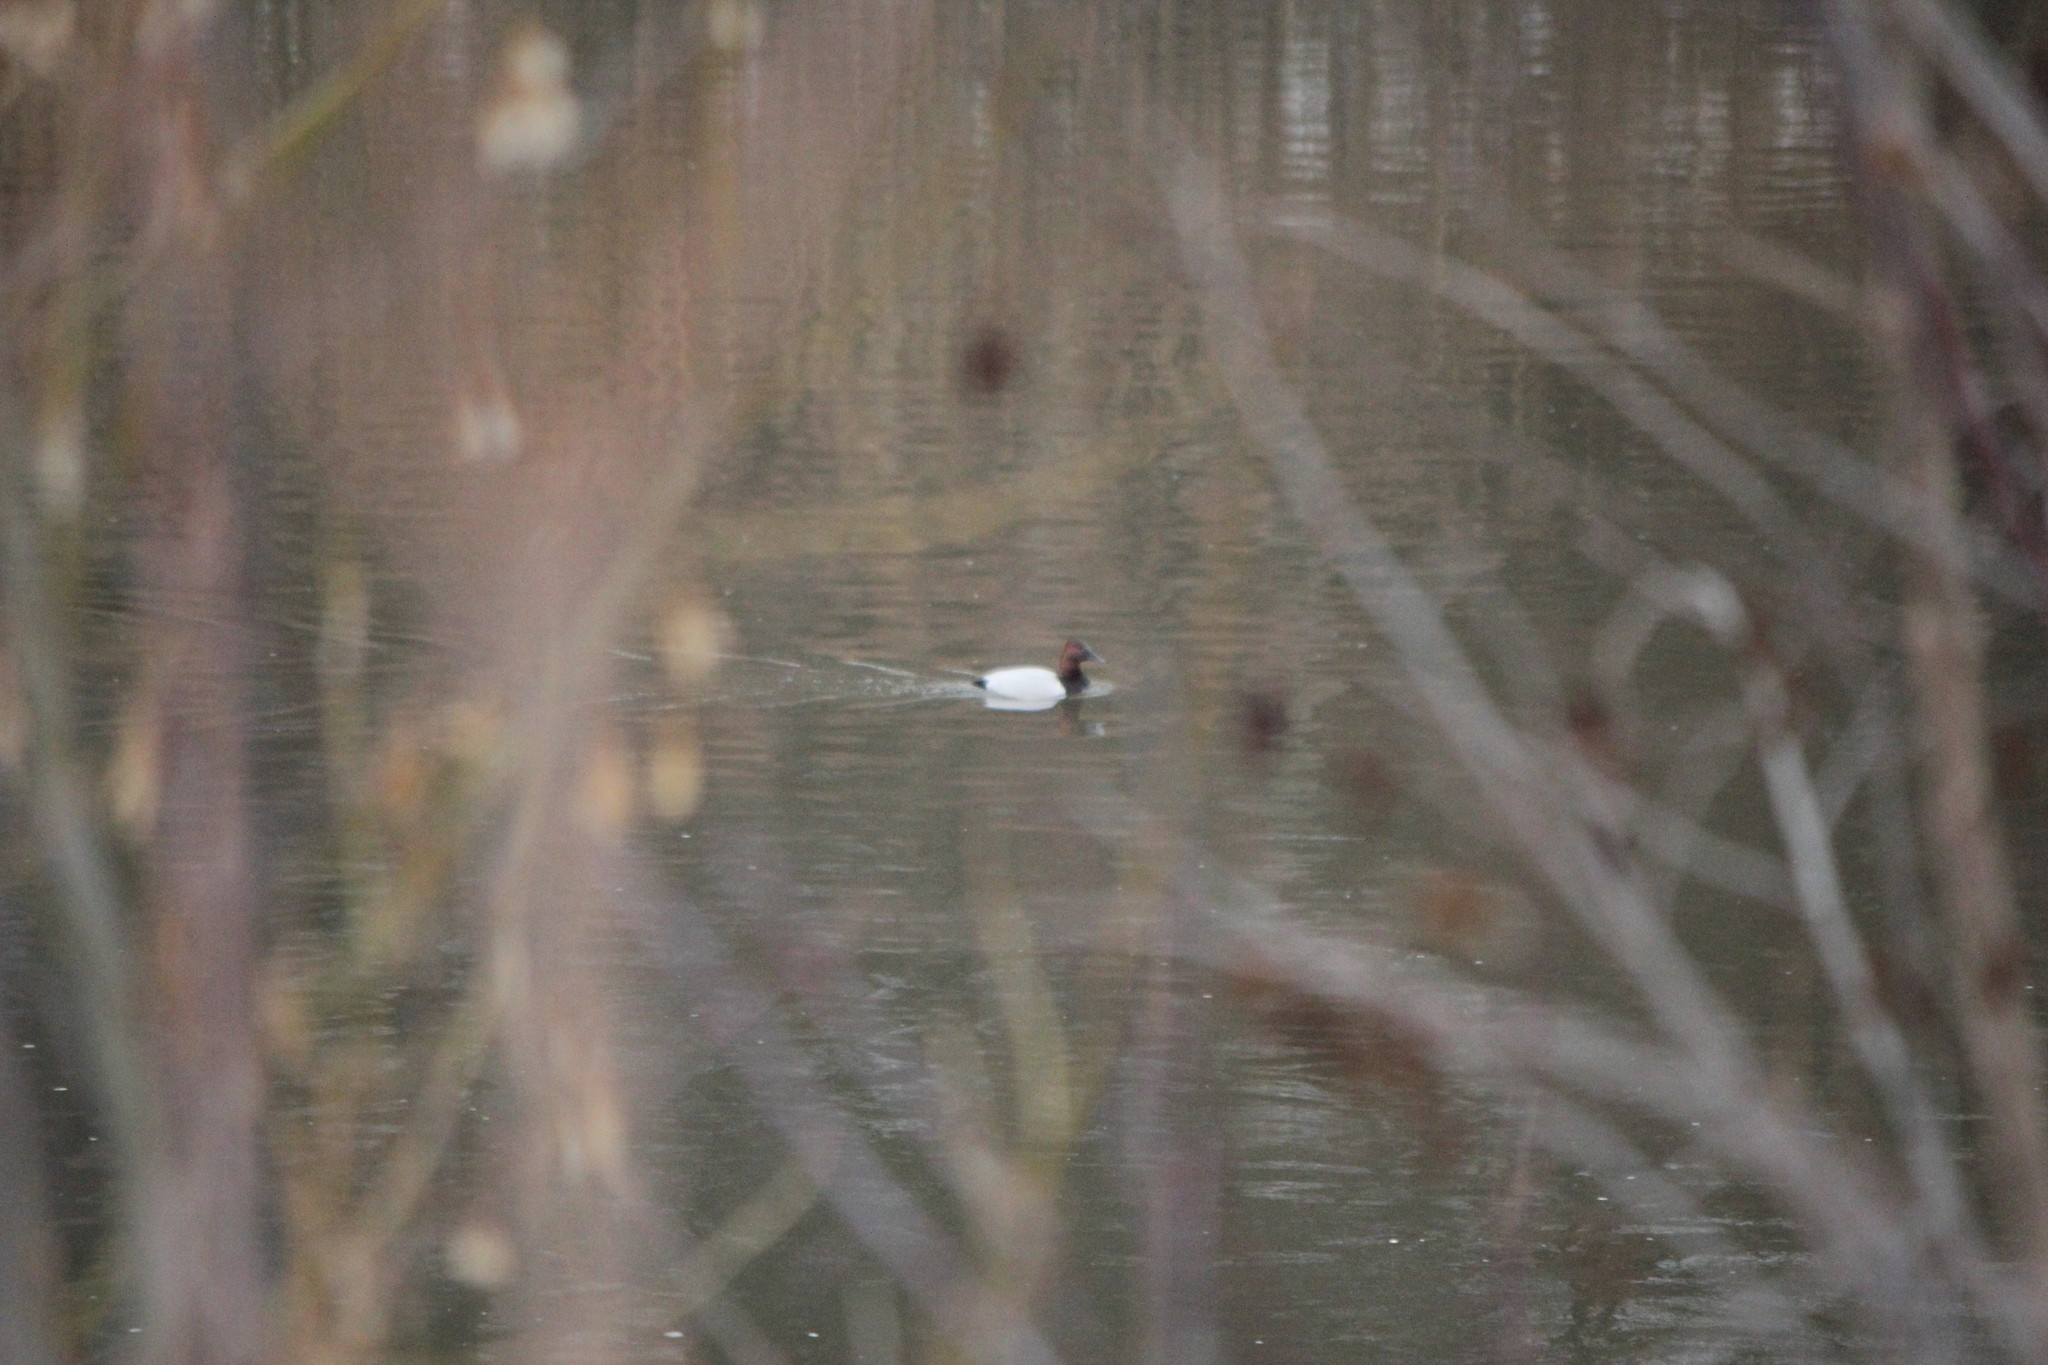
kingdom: Animalia
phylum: Chordata
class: Aves
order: Anseriformes
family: Anatidae
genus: Aythya
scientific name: Aythya valisineria
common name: Canvasback
